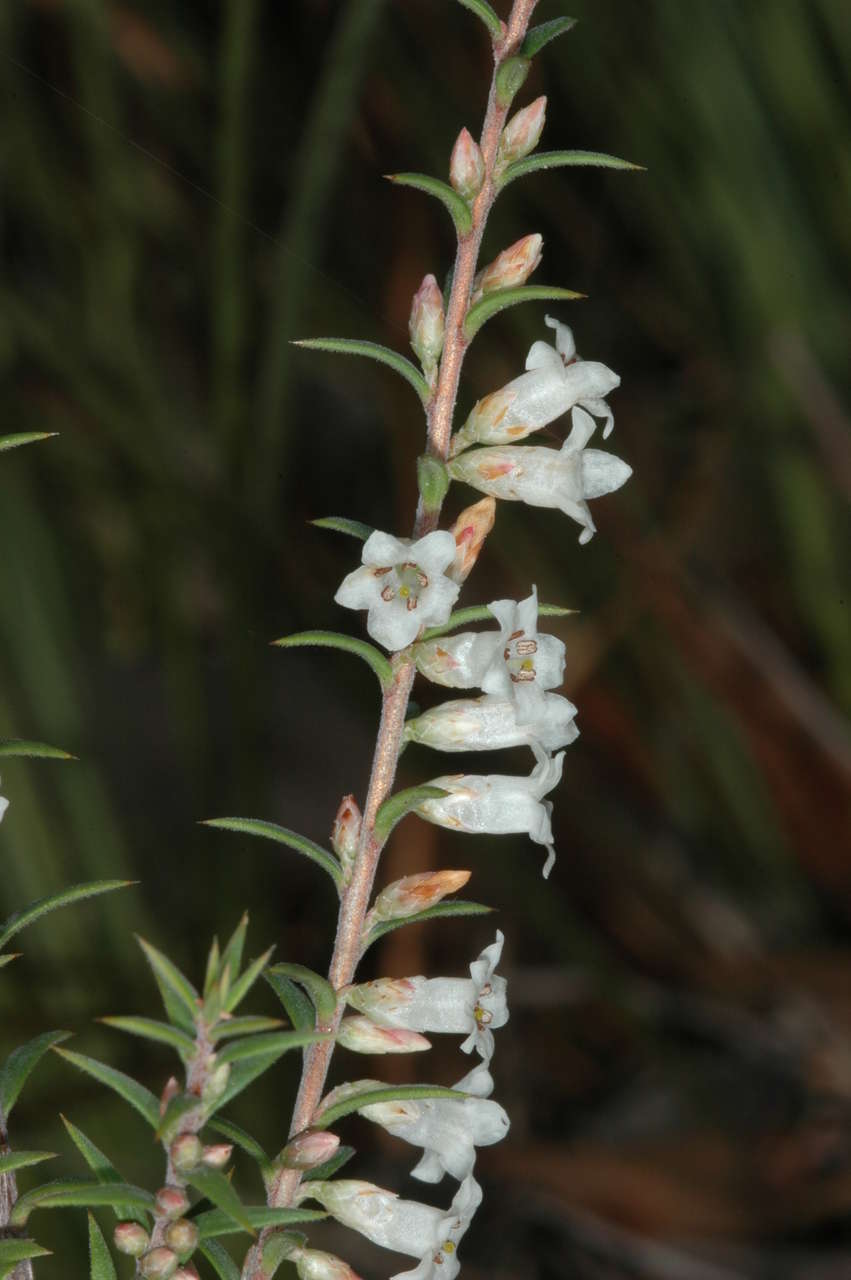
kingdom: Plantae
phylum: Tracheophyta
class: Magnoliopsida
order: Ericales
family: Ericaceae
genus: Epacris
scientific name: Epacris impressa
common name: Common-heath
